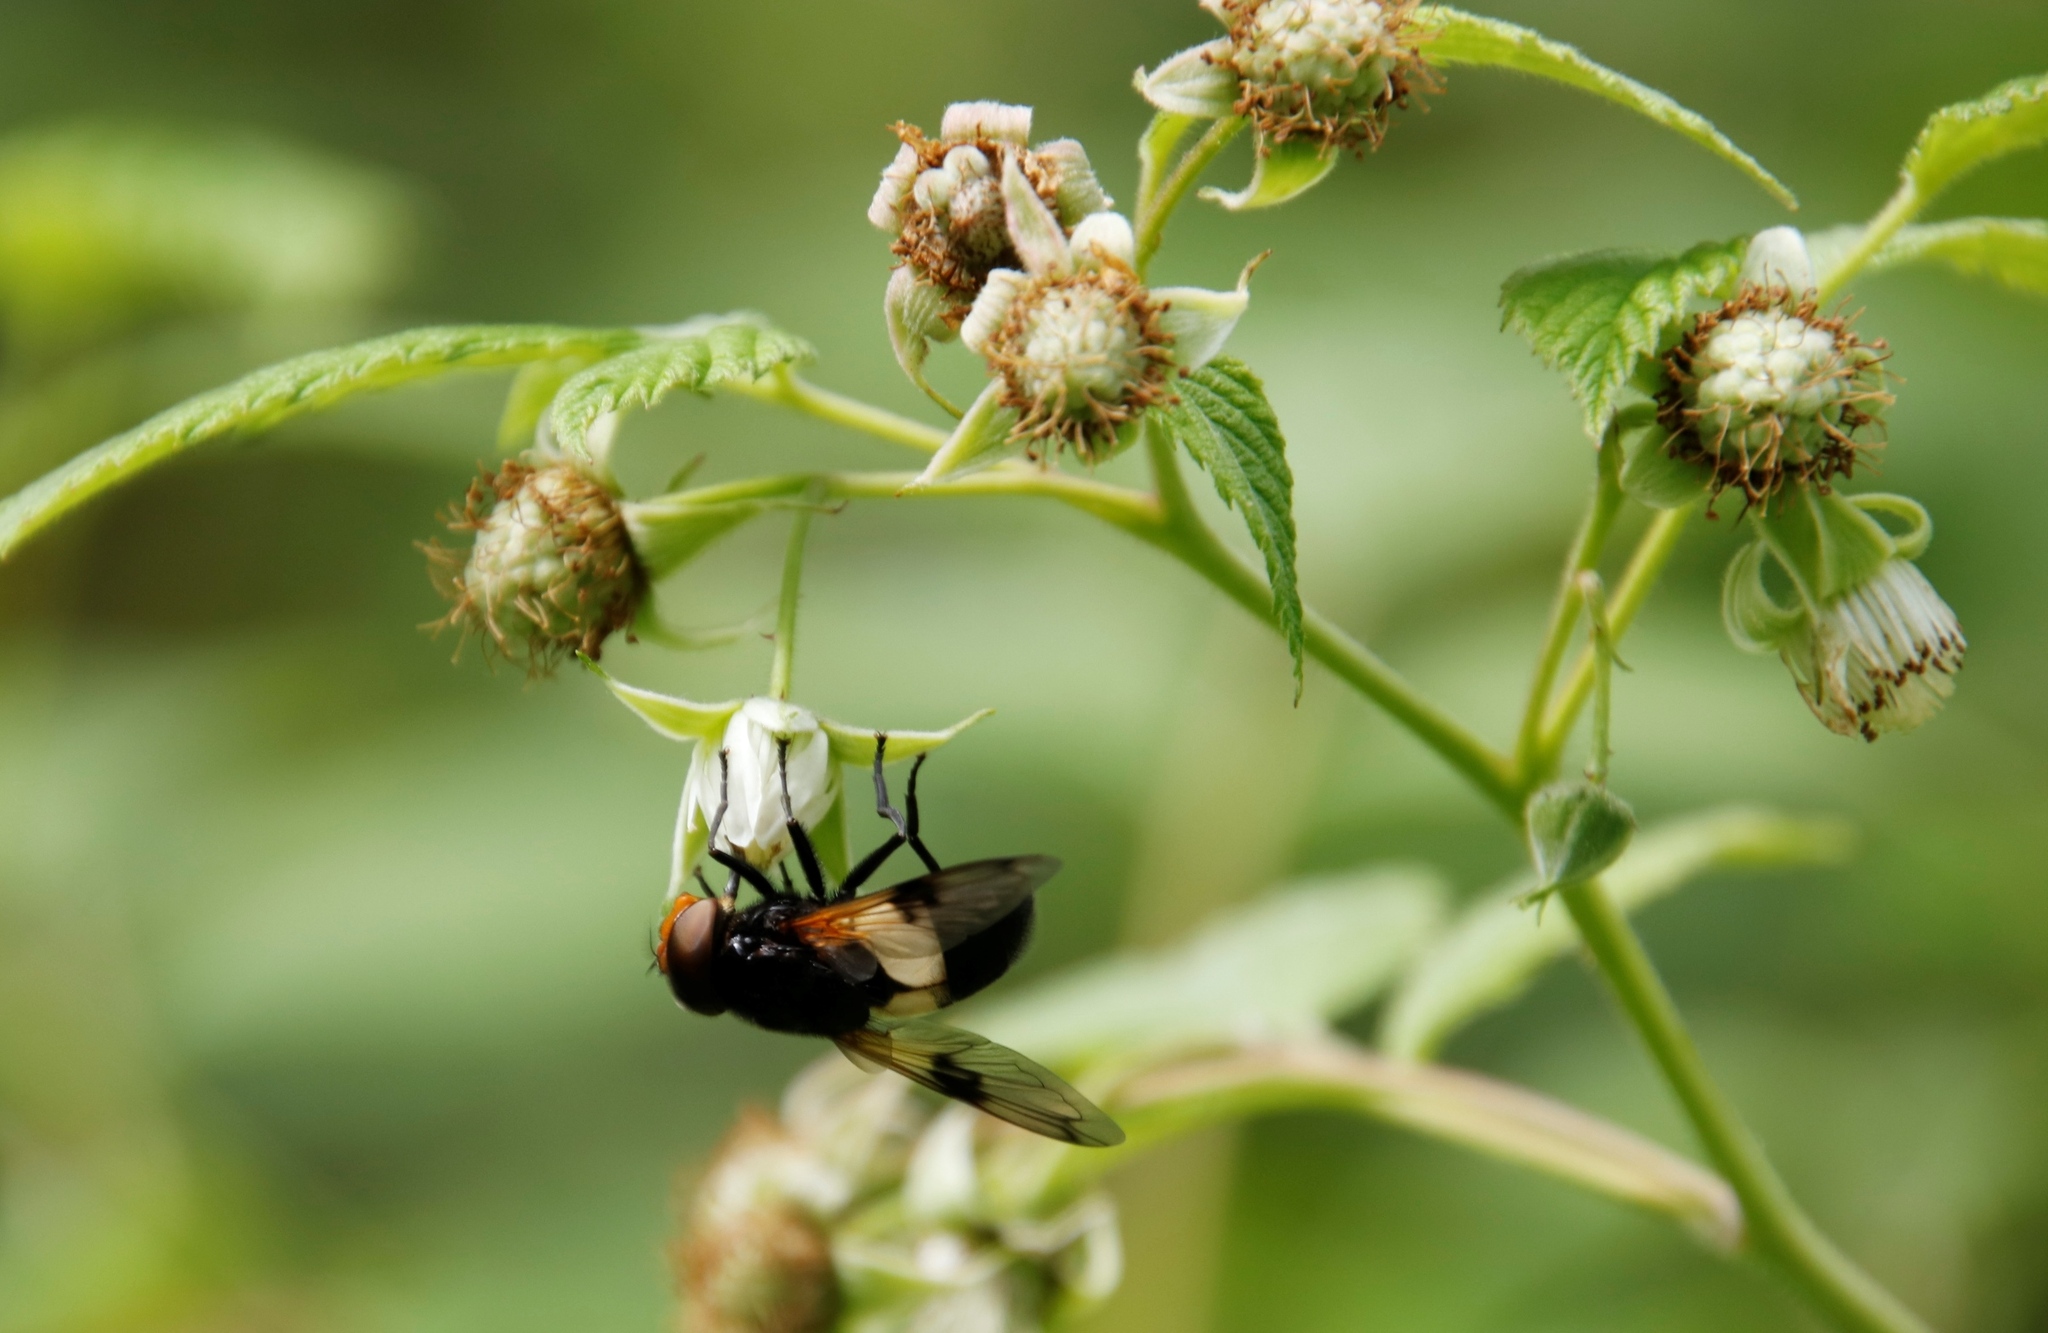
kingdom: Animalia
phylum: Arthropoda
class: Insecta
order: Diptera
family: Syrphidae
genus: Volucella
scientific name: Volucella pellucens
